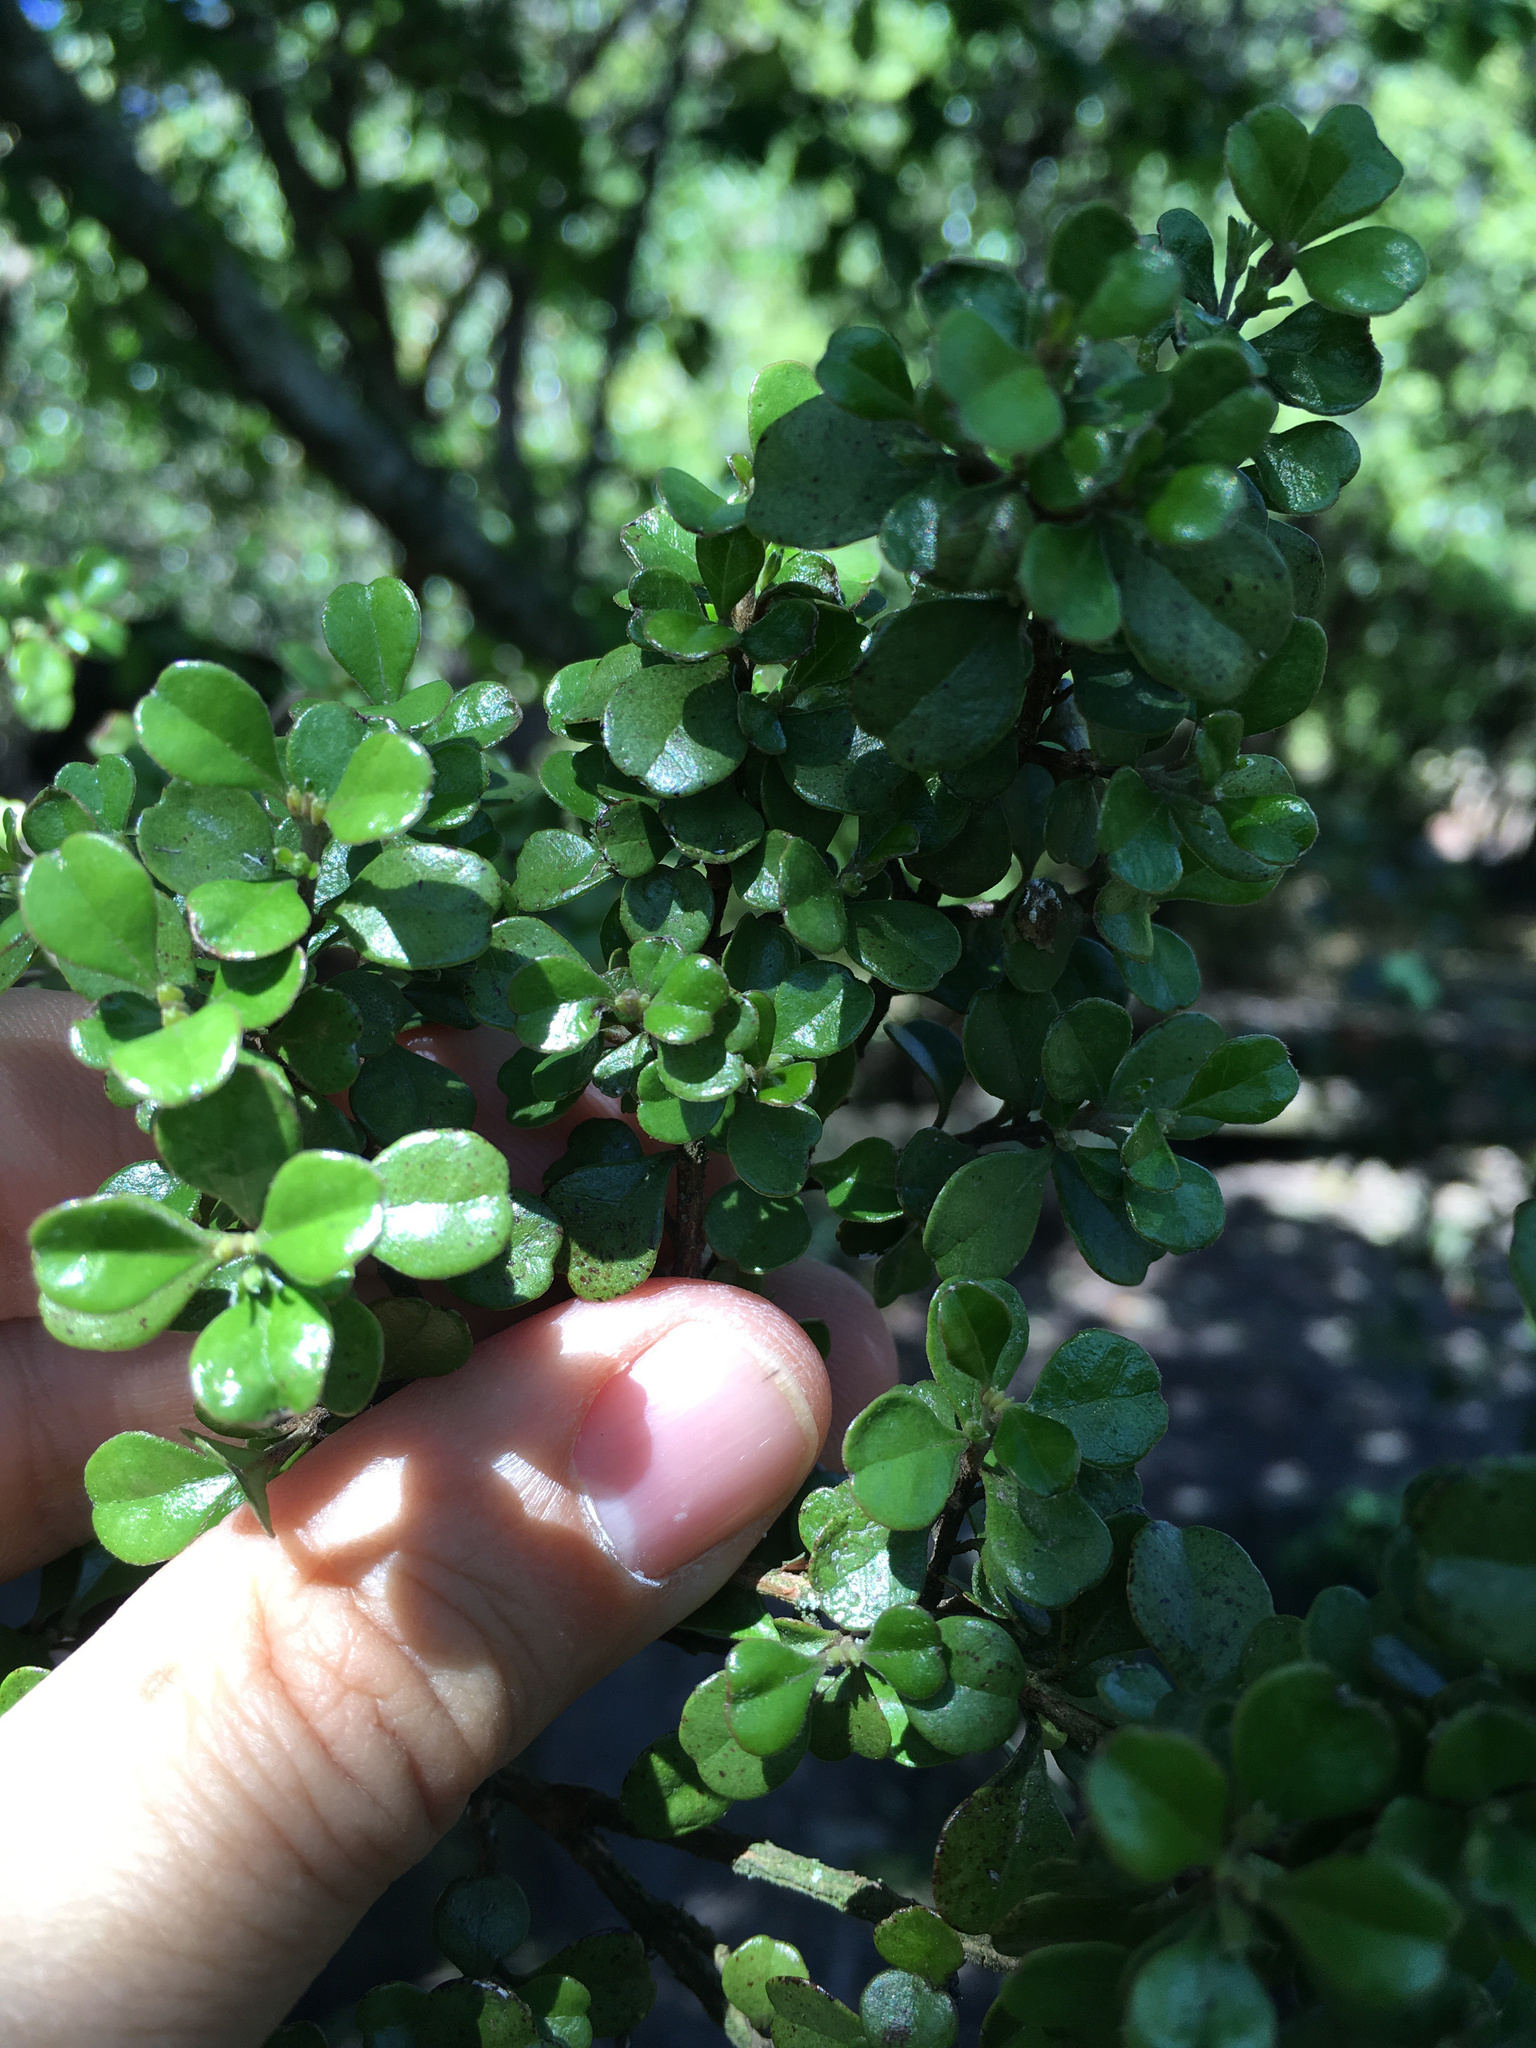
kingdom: Plantae
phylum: Tracheophyta
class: Magnoliopsida
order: Myrtales
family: Myrtaceae
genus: Lophomyrtus
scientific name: Lophomyrtus obcordata
